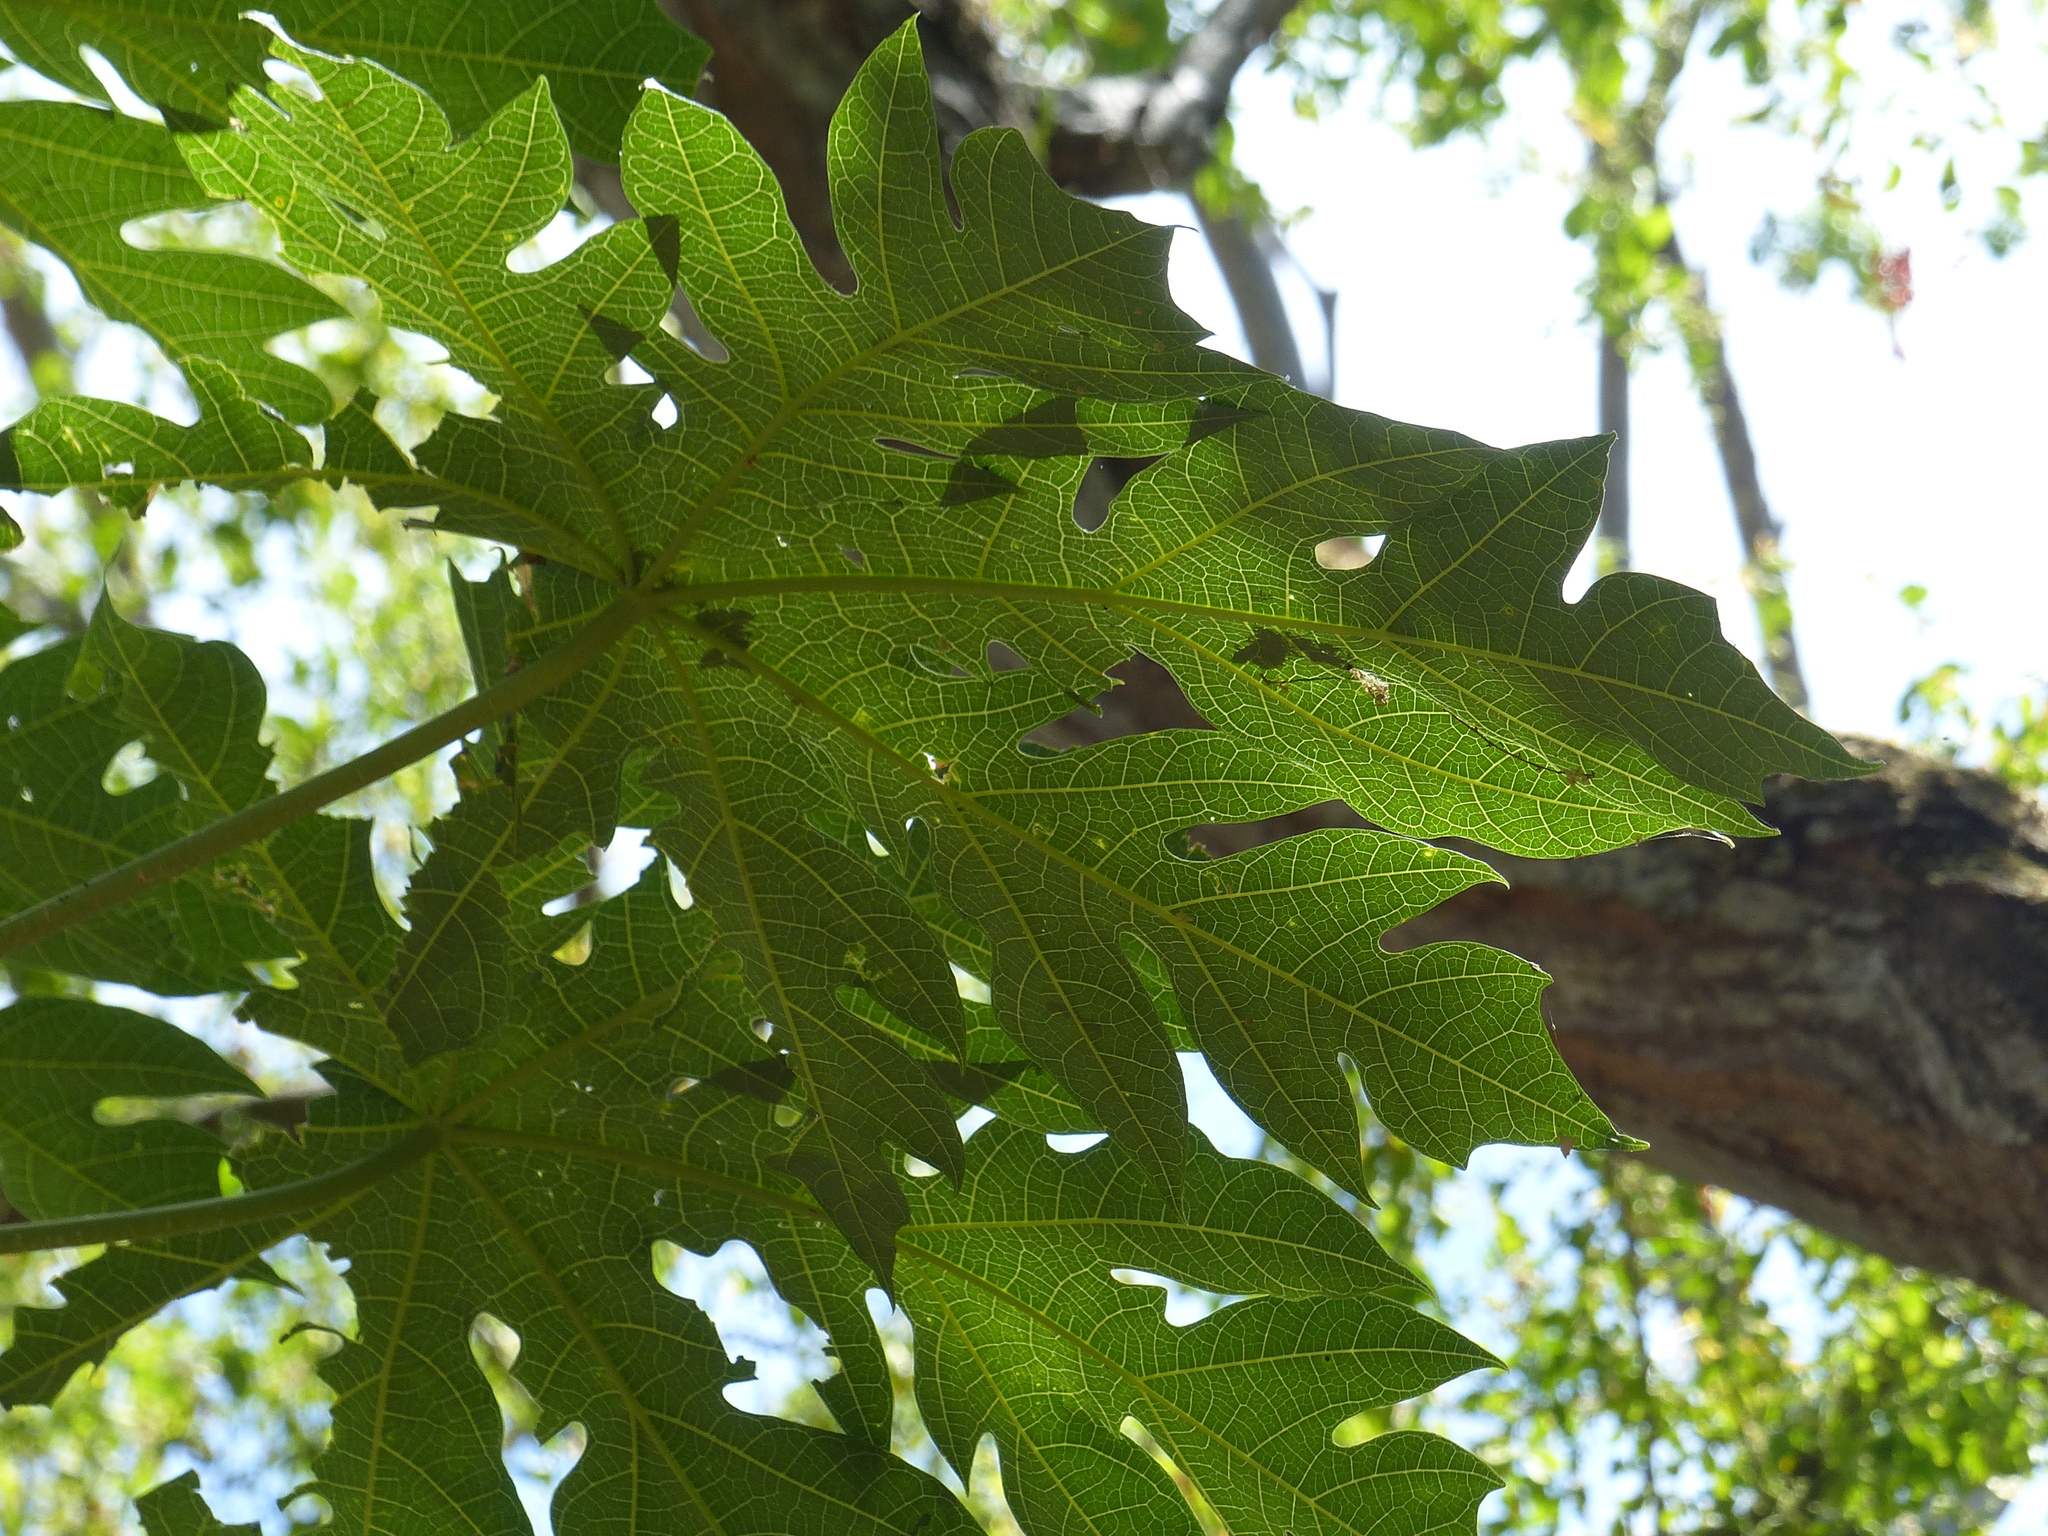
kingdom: Plantae
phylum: Tracheophyta
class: Magnoliopsida
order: Brassicales
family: Caricaceae
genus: Carica
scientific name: Carica papaya
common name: Papaya
